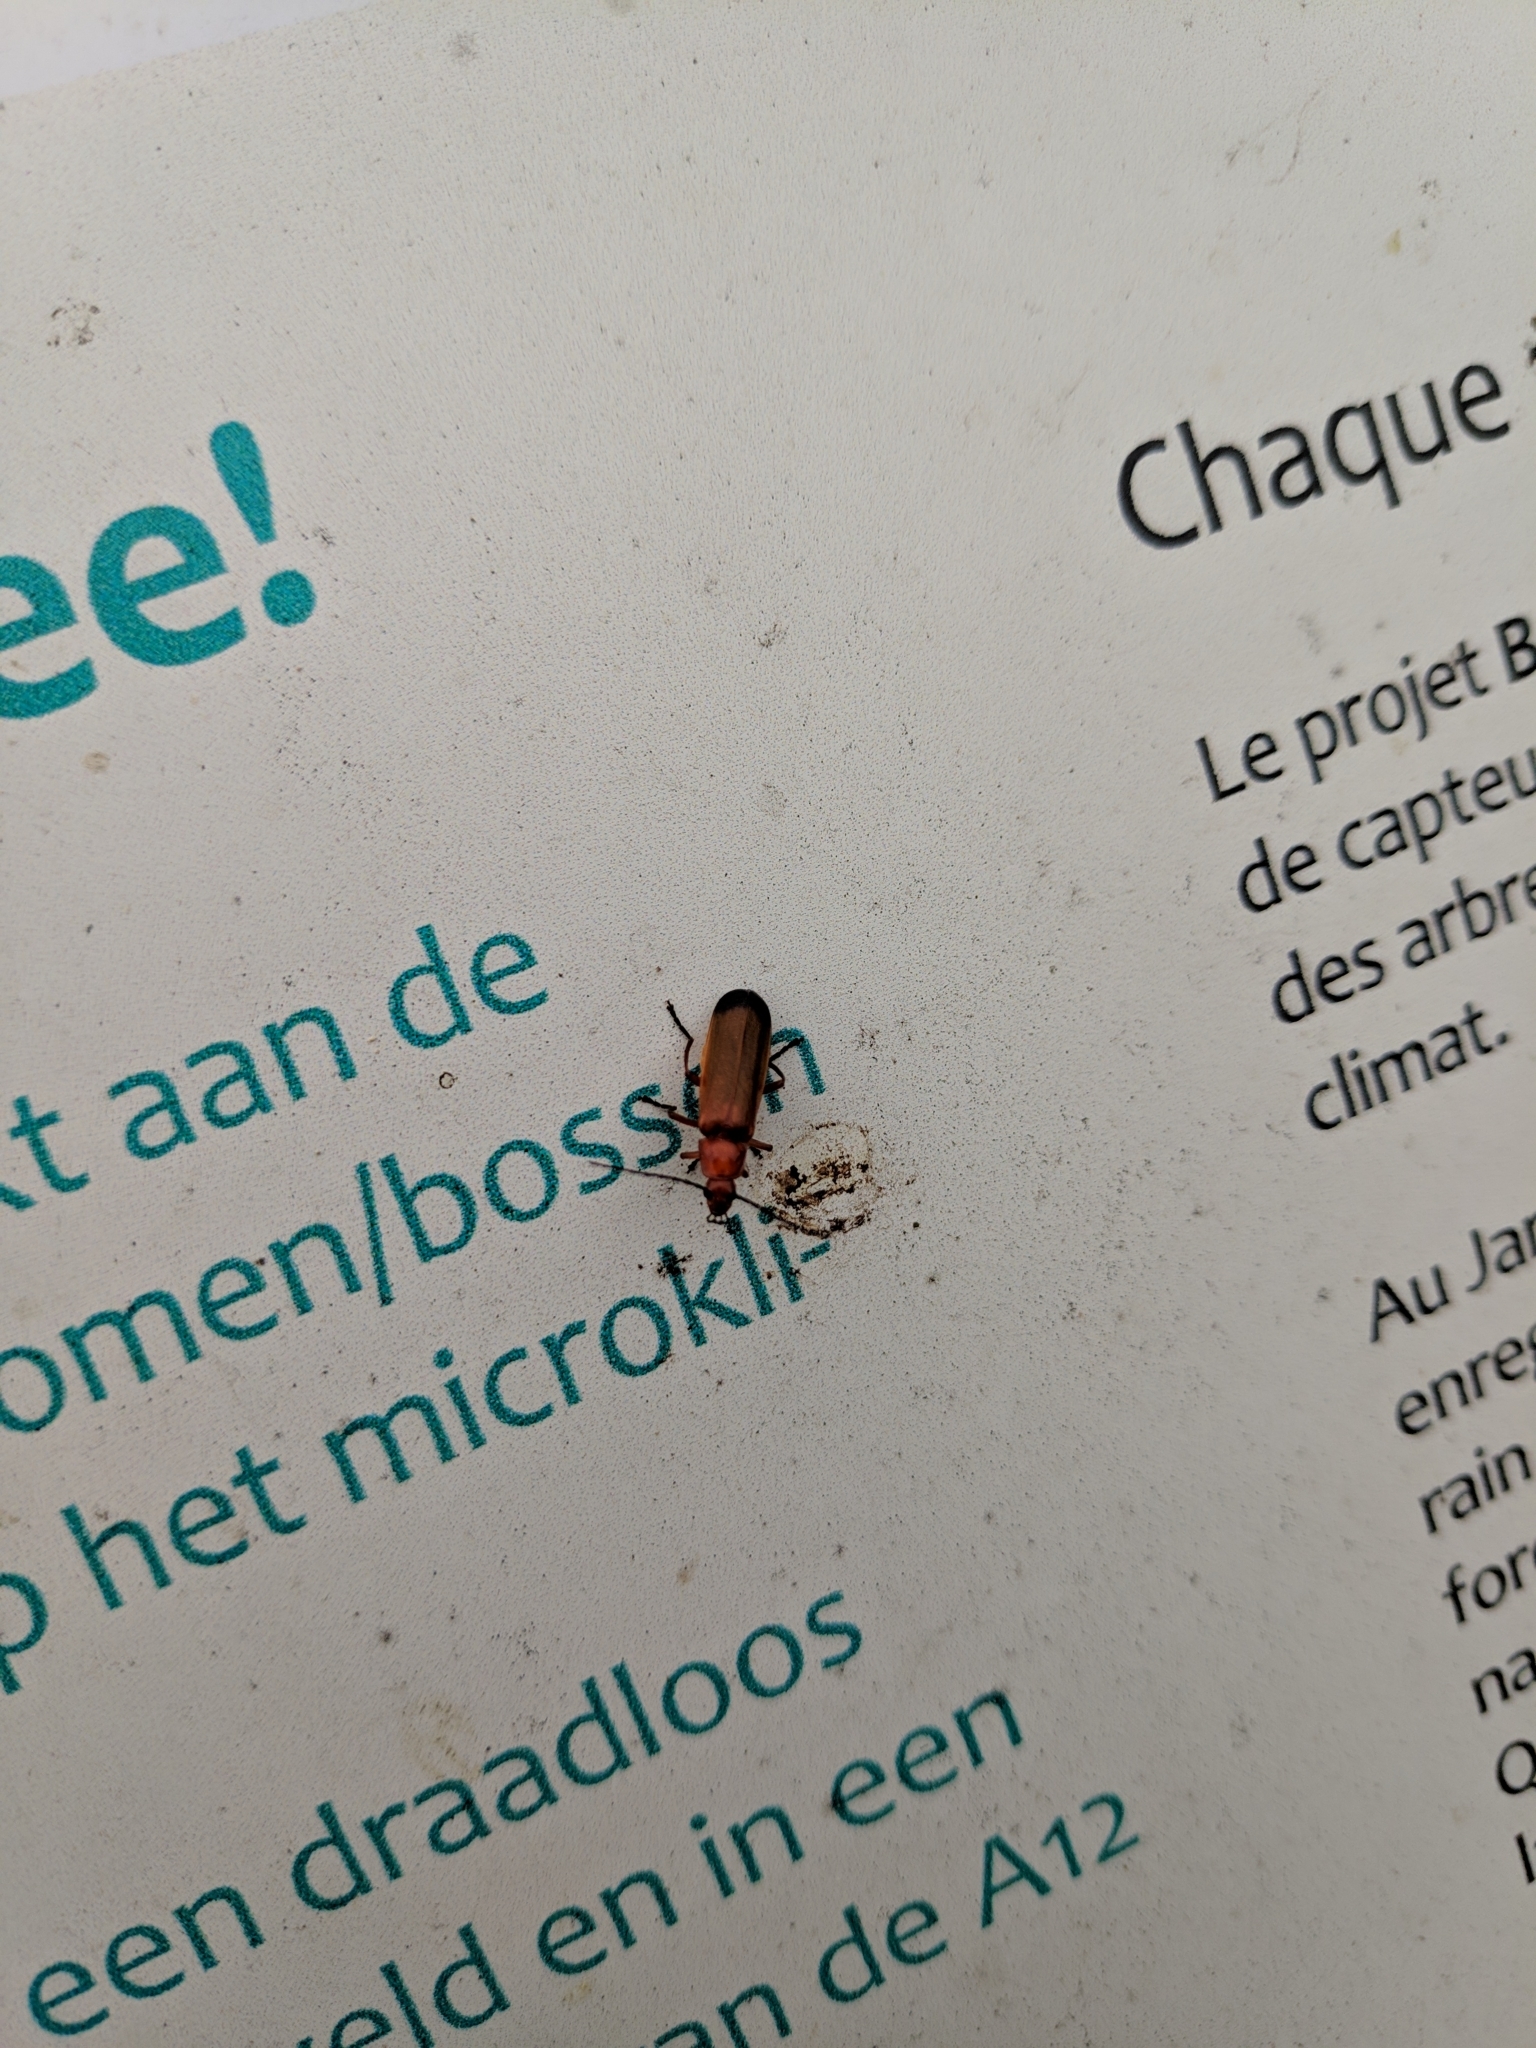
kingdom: Animalia
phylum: Arthropoda
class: Insecta
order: Coleoptera
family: Cantharidae
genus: Rhagonycha
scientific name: Rhagonycha fulva
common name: Common red soldier beetle
